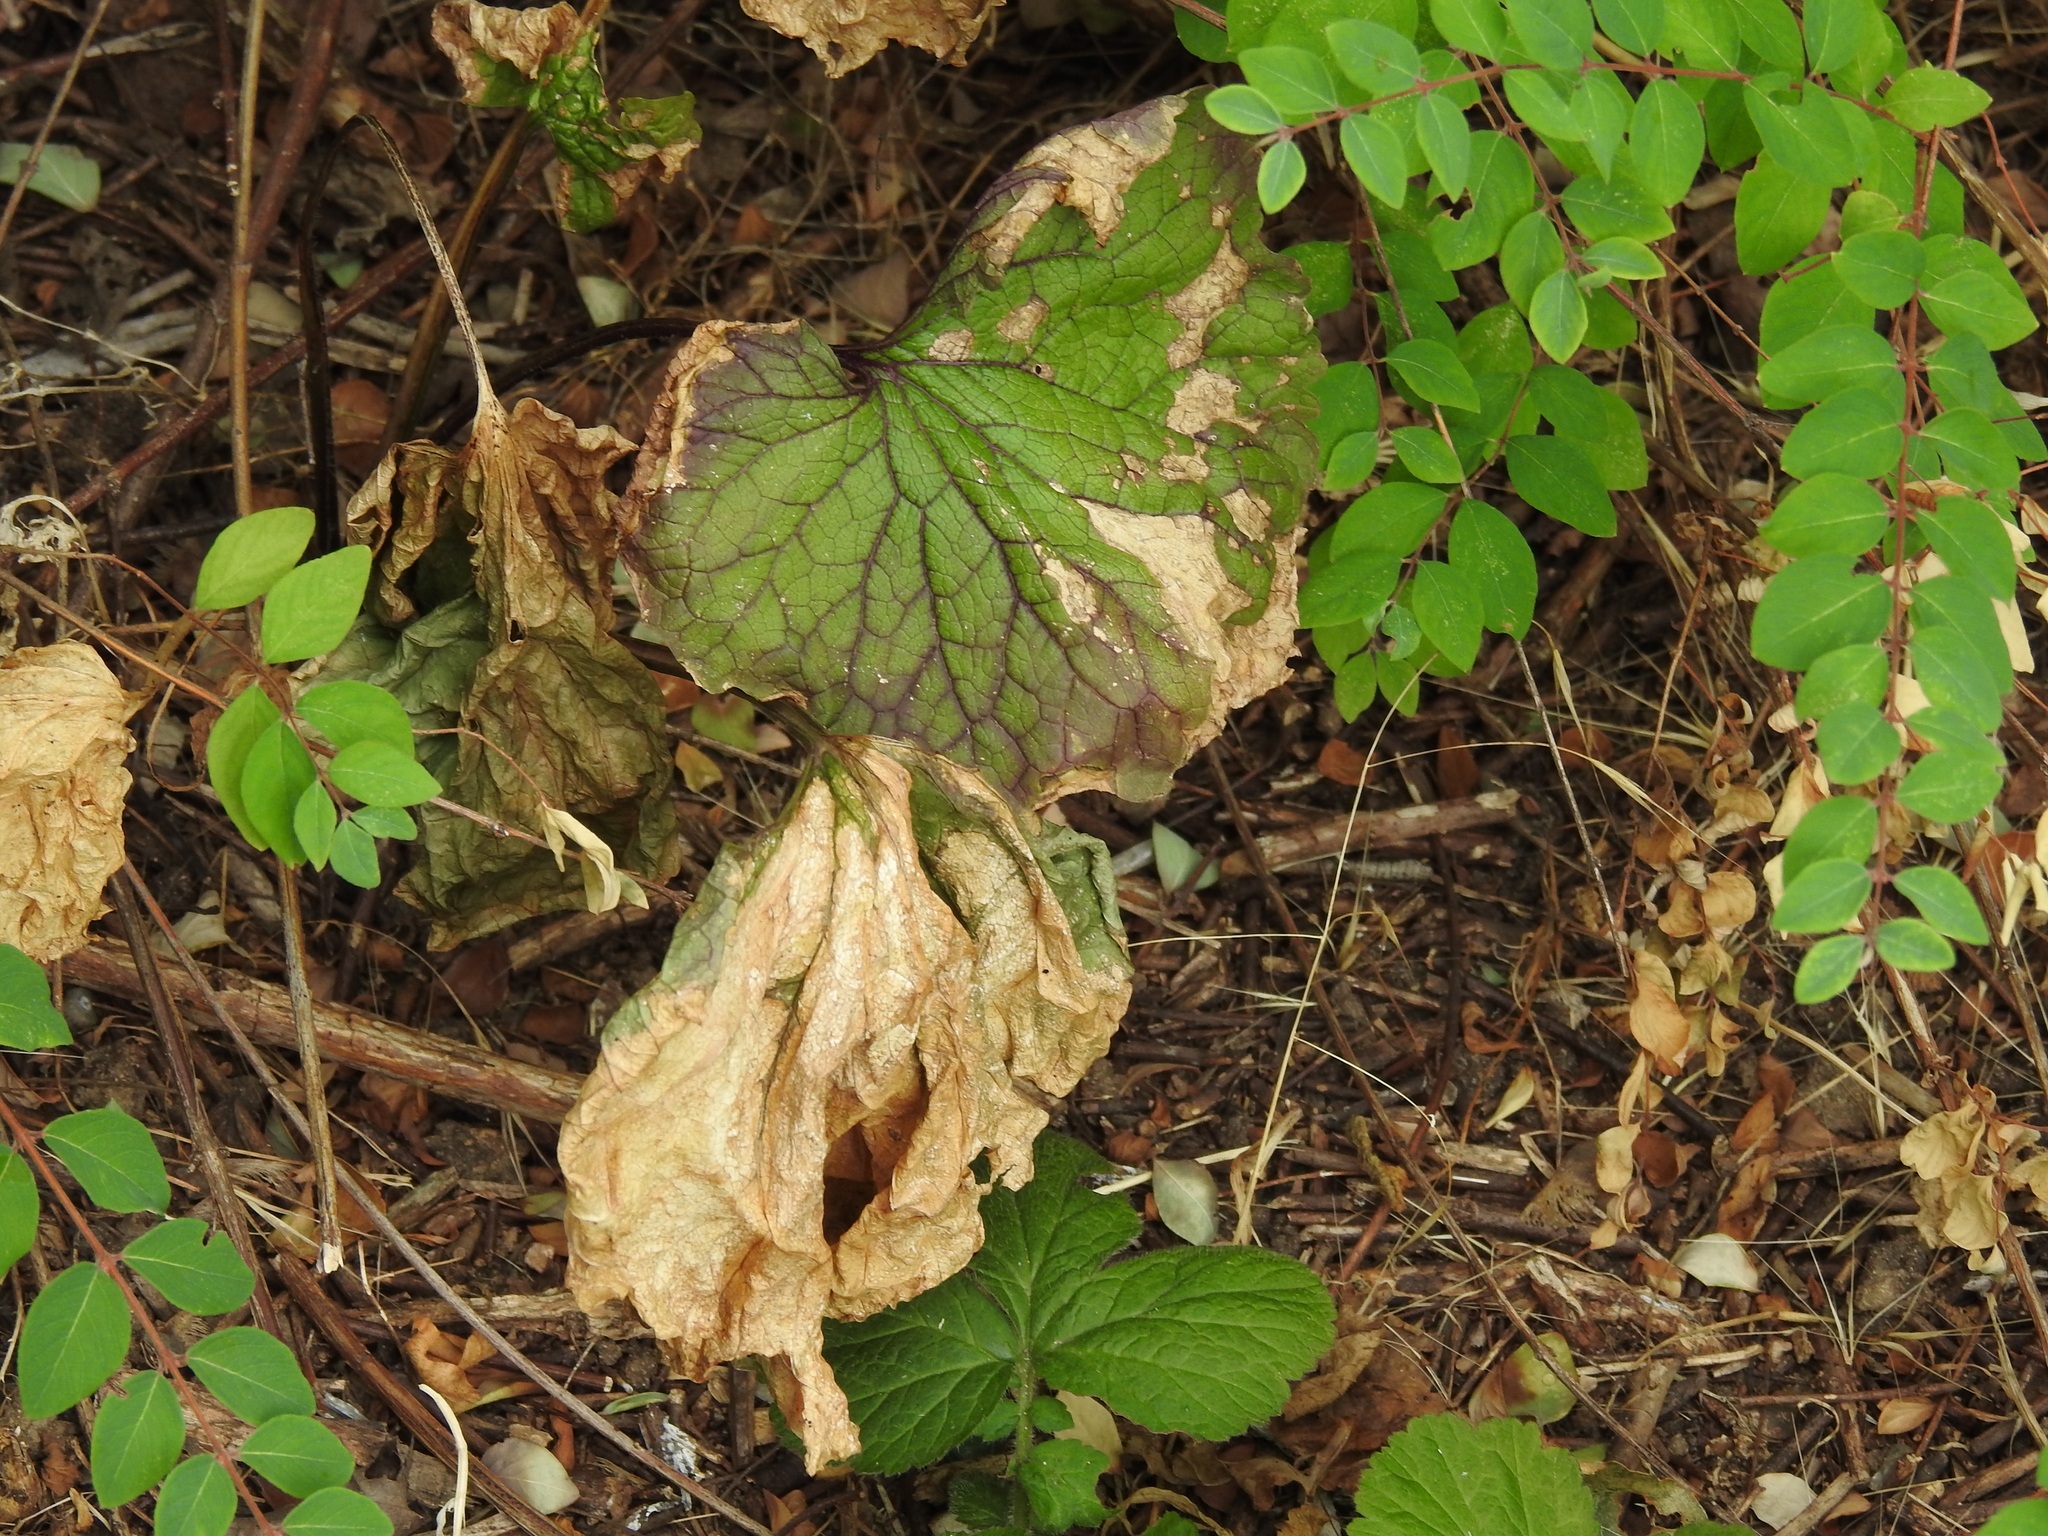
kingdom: Plantae
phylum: Tracheophyta
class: Magnoliopsida
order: Brassicales
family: Brassicaceae
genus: Alliaria
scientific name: Alliaria petiolata
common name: Garlic mustard
